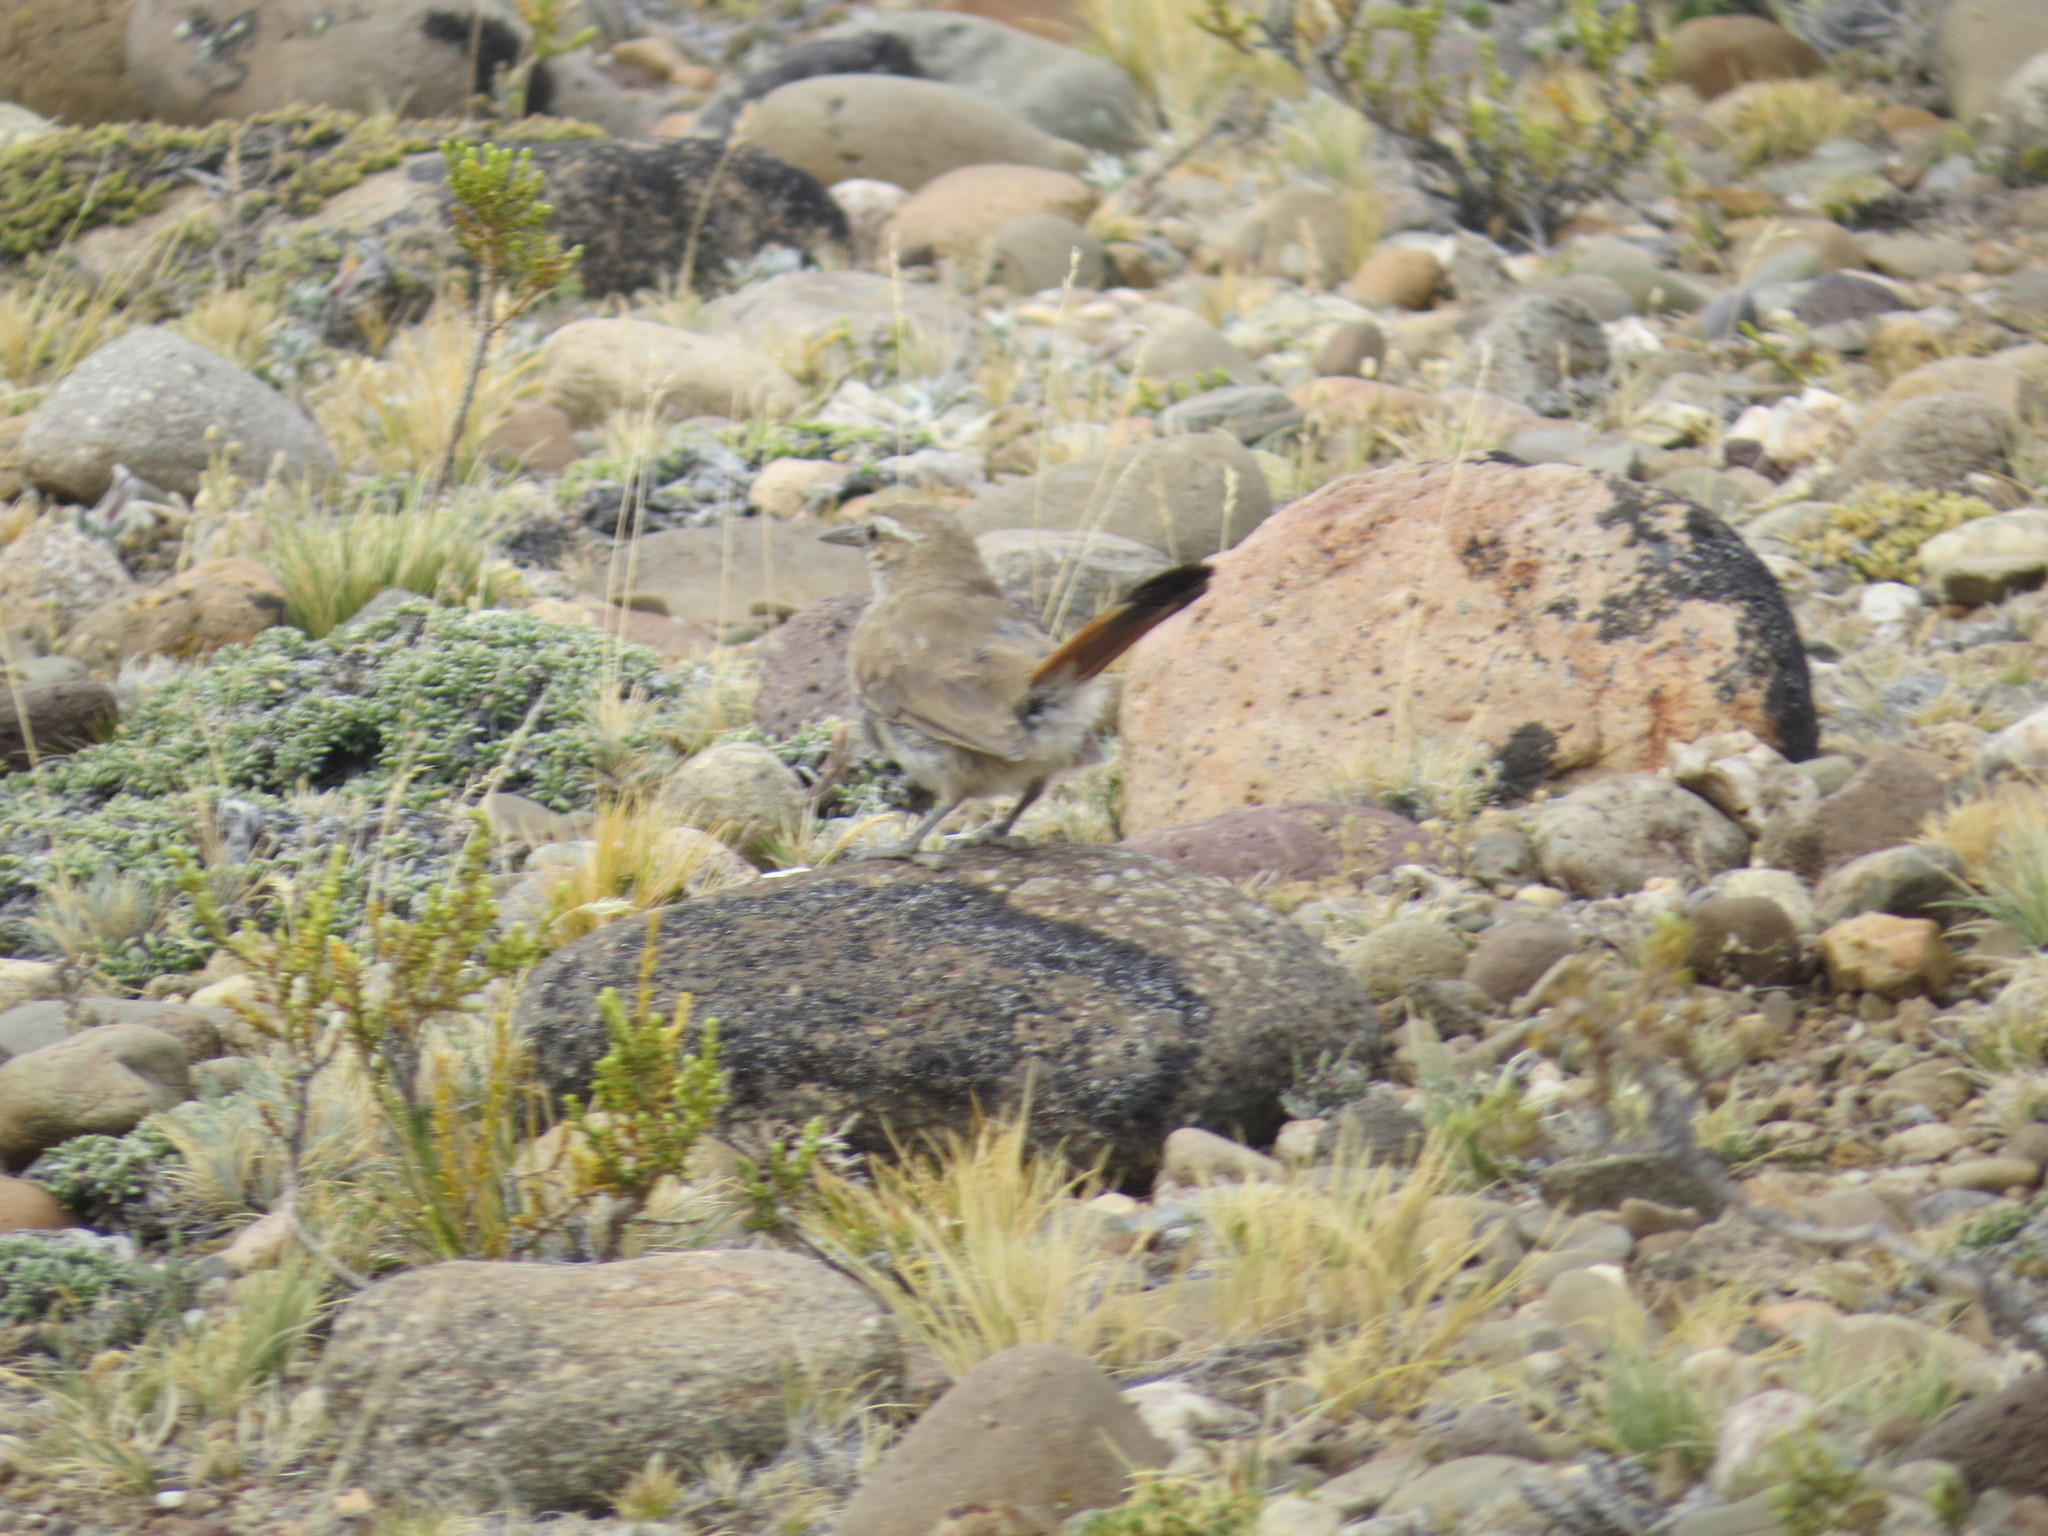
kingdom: Animalia
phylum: Chordata
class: Aves
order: Passeriformes
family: Furnariidae
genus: Asthenes
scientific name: Asthenes modesta
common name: Cordilleran canastero
